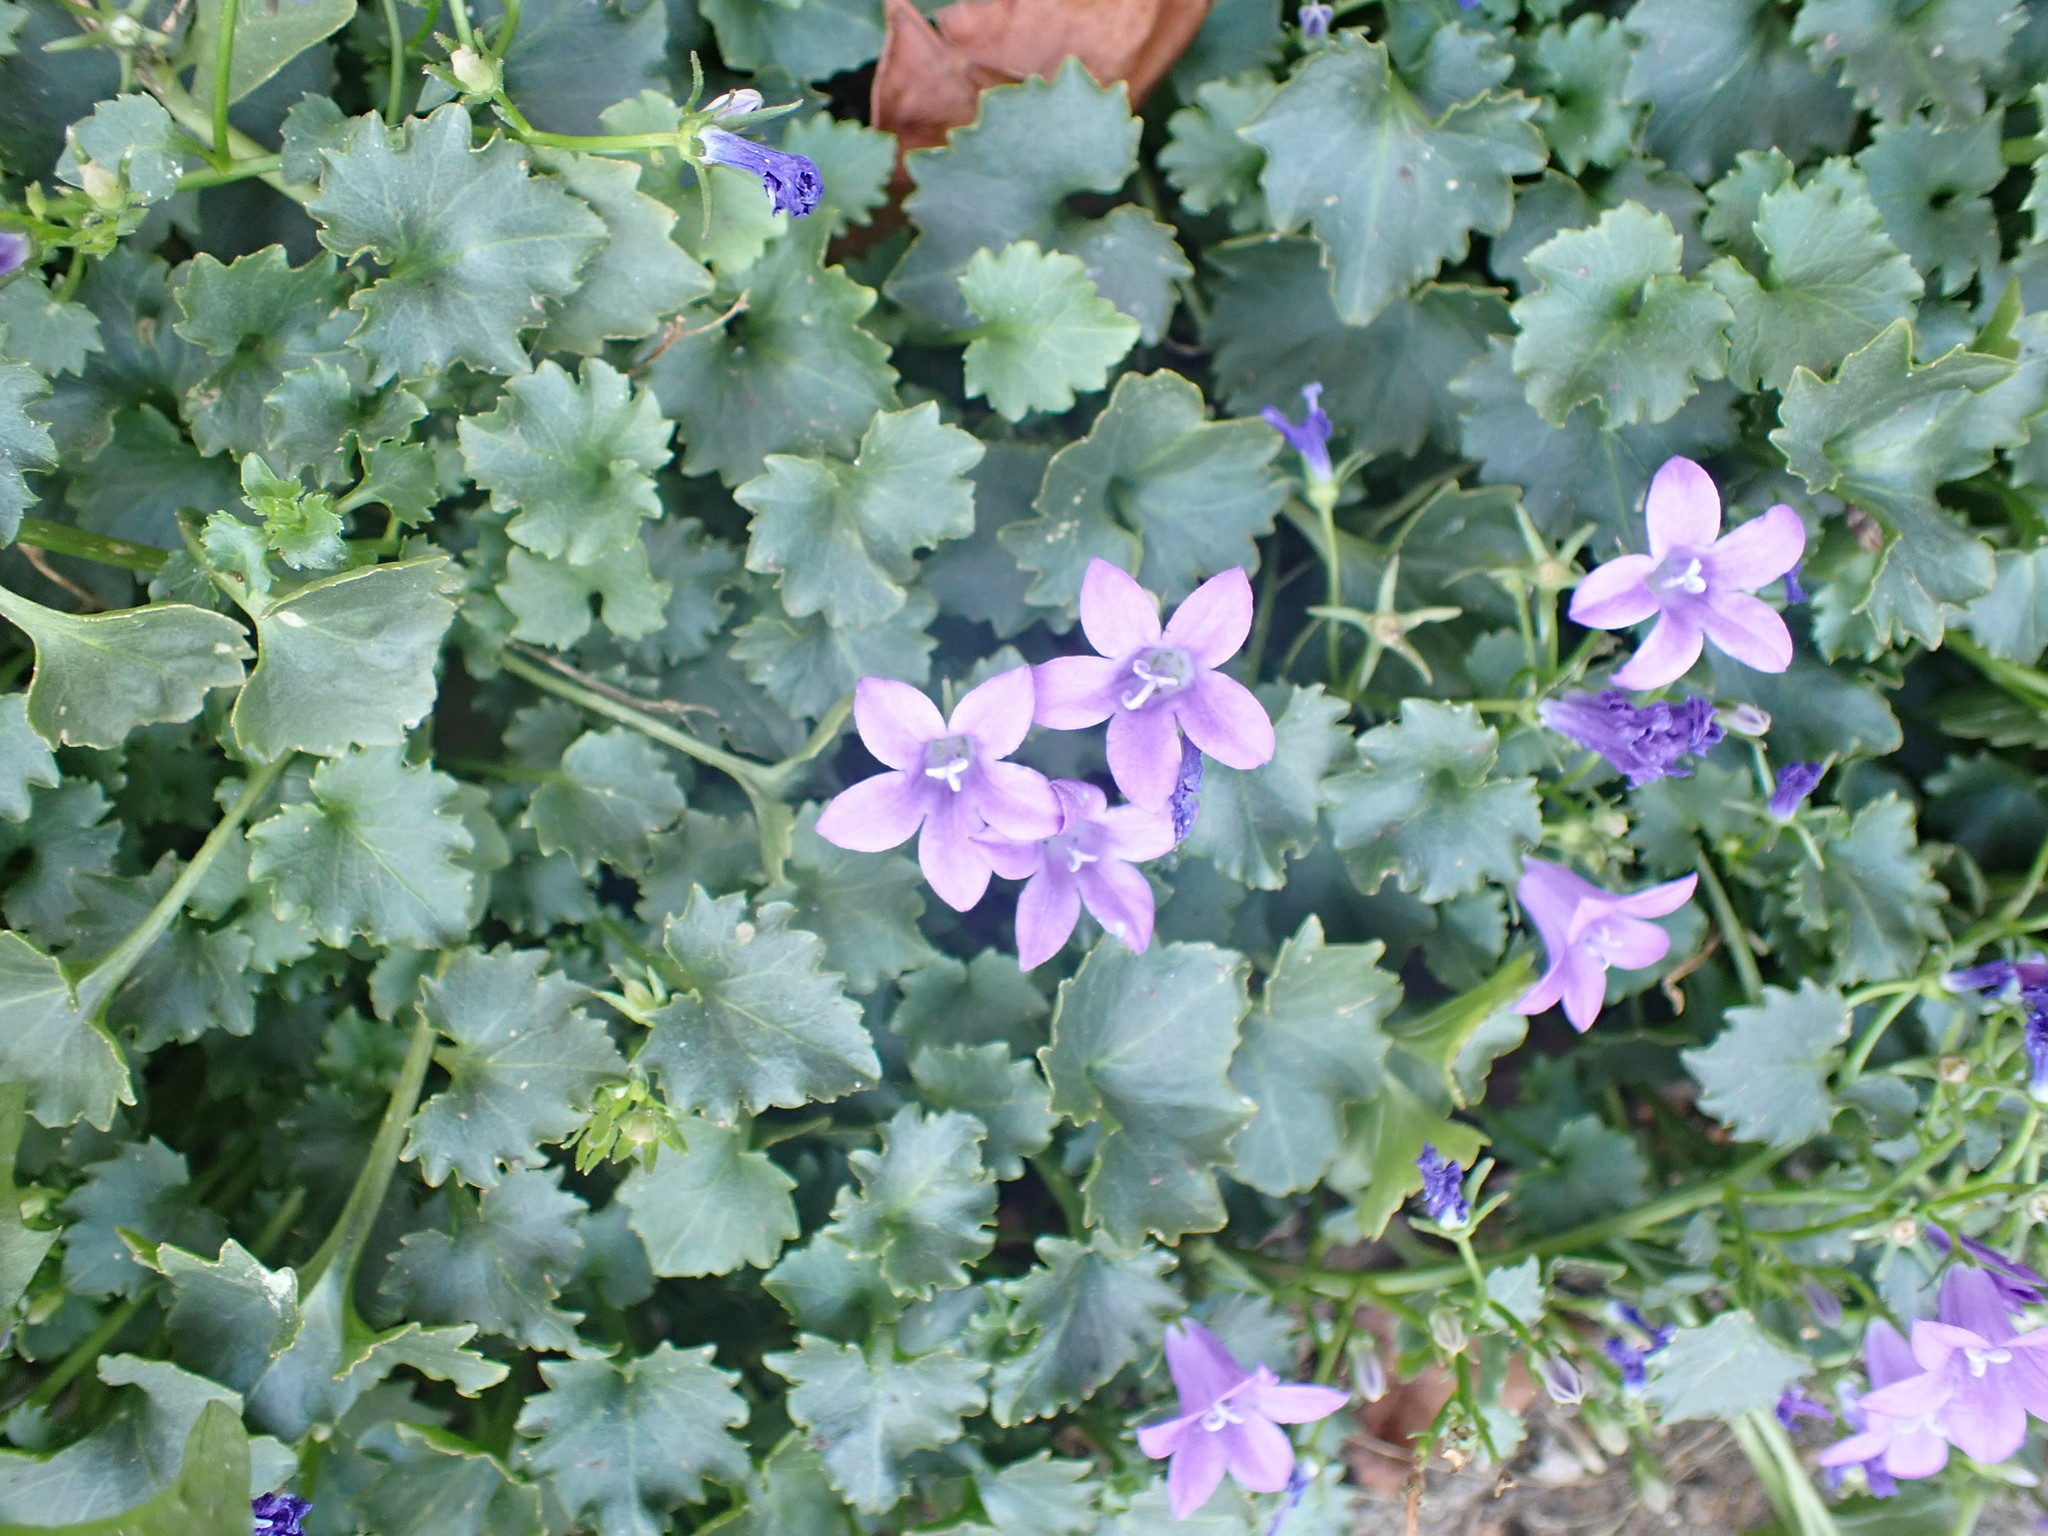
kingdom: Plantae
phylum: Tracheophyta
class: Magnoliopsida
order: Asterales
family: Campanulaceae
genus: Campanula
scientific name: Campanula portenschlagiana
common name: Adria bellflower
